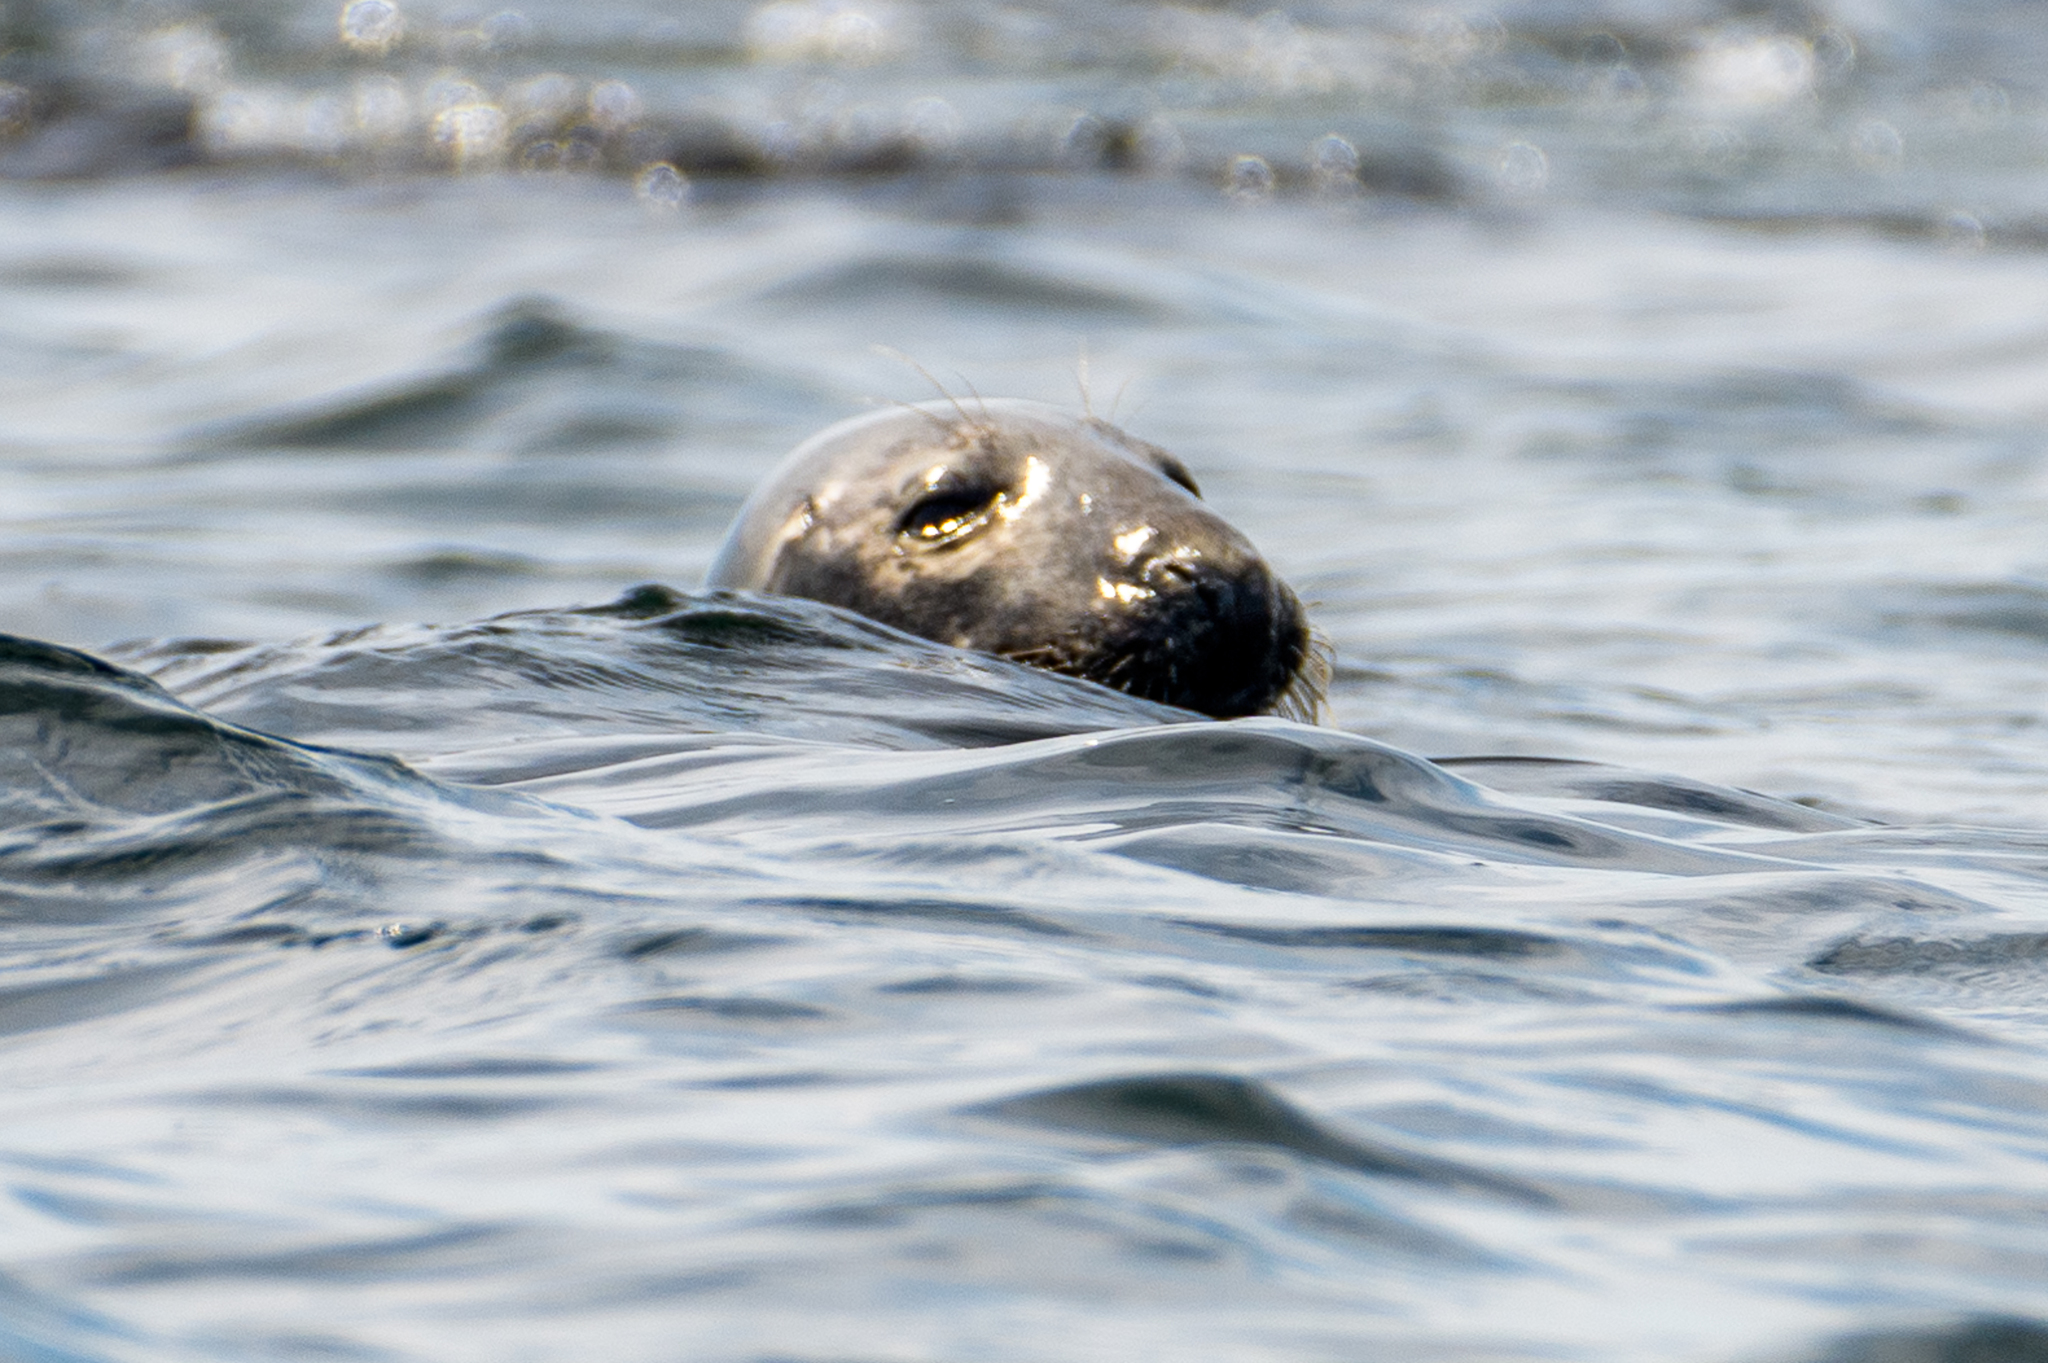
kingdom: Animalia
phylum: Chordata
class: Mammalia
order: Carnivora
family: Phocidae
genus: Halichoerus
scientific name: Halichoerus grypus
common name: Grey seal
